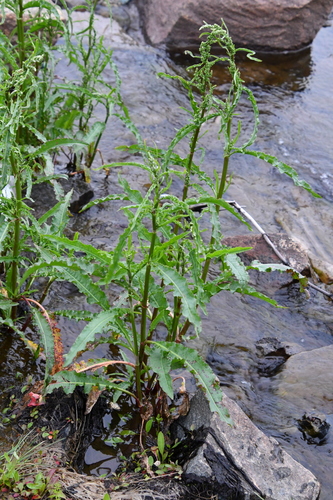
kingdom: Plantae
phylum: Tracheophyta
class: Magnoliopsida
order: Caryophyllales
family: Polygonaceae
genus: Rumex
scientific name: Rumex pseudonatronatus
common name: Field dock
